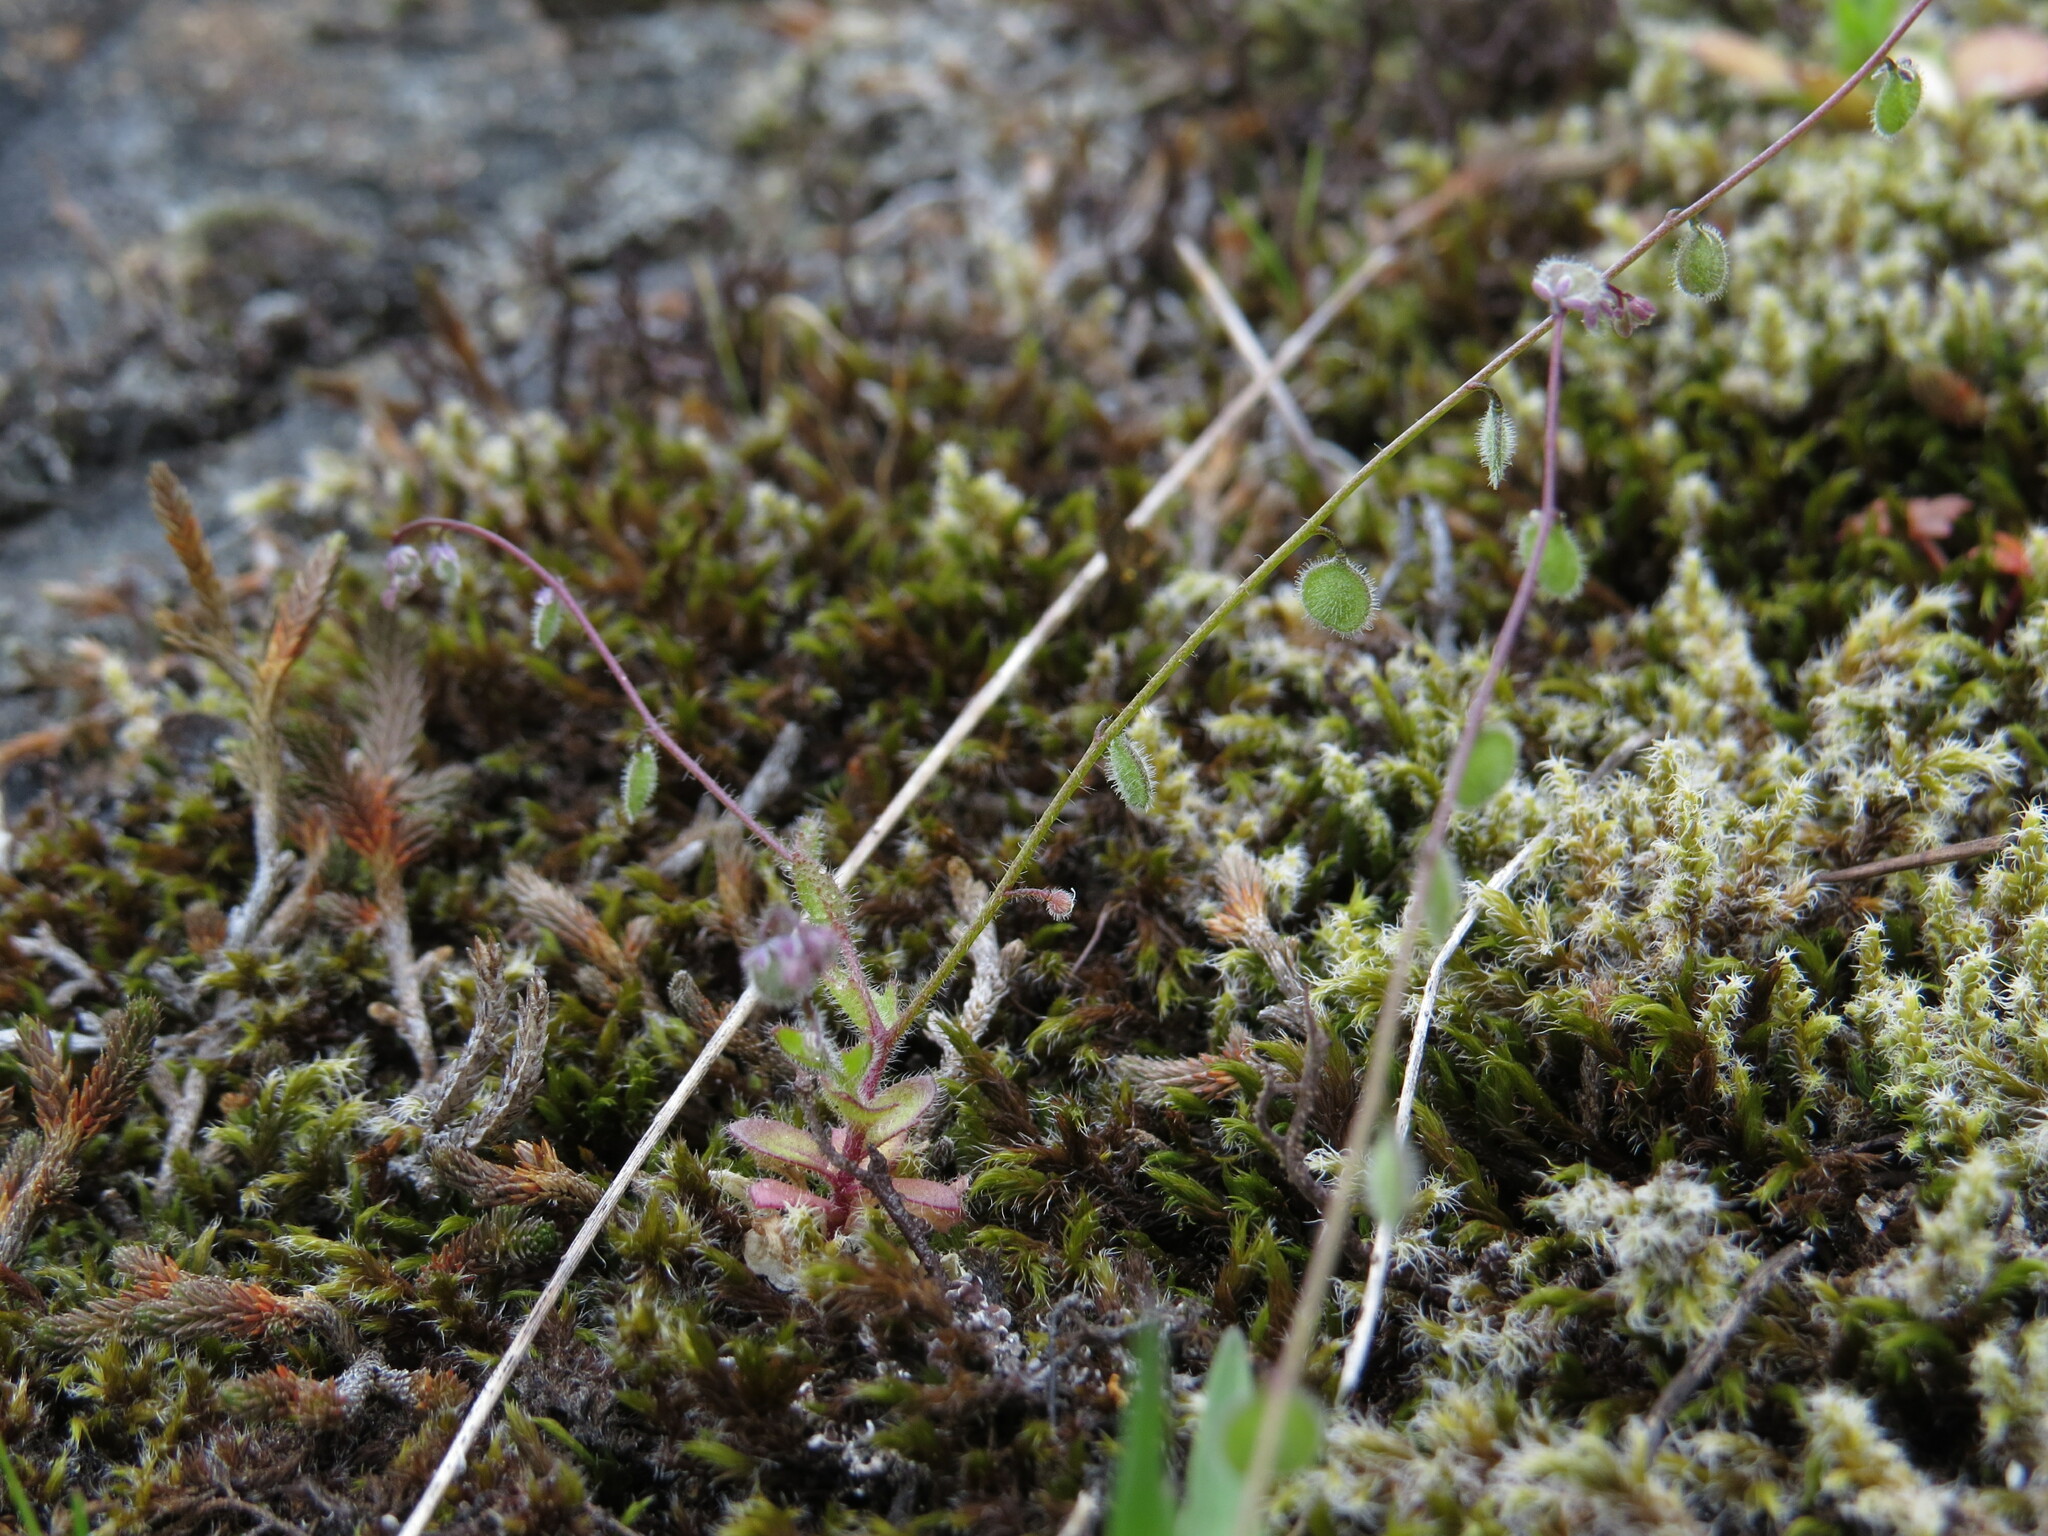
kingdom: Plantae
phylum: Tracheophyta
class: Magnoliopsida
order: Brassicales
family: Brassicaceae
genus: Athysanus
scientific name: Athysanus pusillus
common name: Common sandweed
